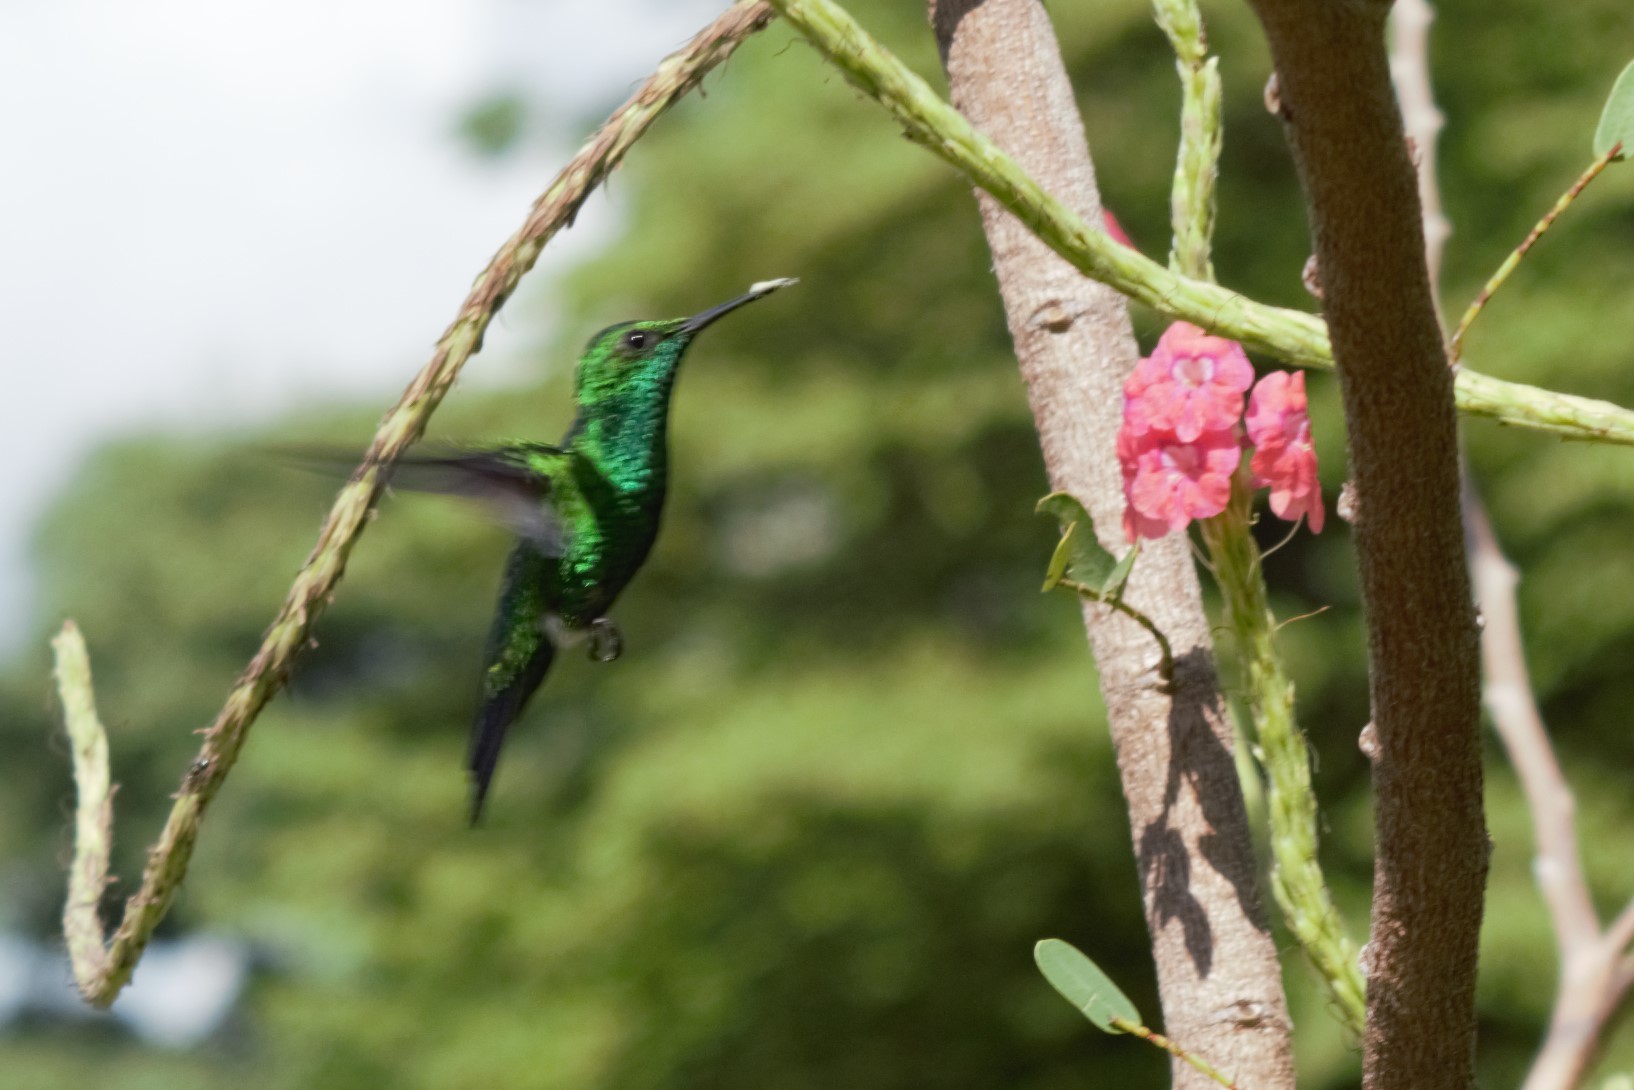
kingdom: Animalia
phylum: Chordata
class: Aves
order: Apodiformes
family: Trochilidae
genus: Chlorostilbon
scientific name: Chlorostilbon assimilis
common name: Garden emerald
